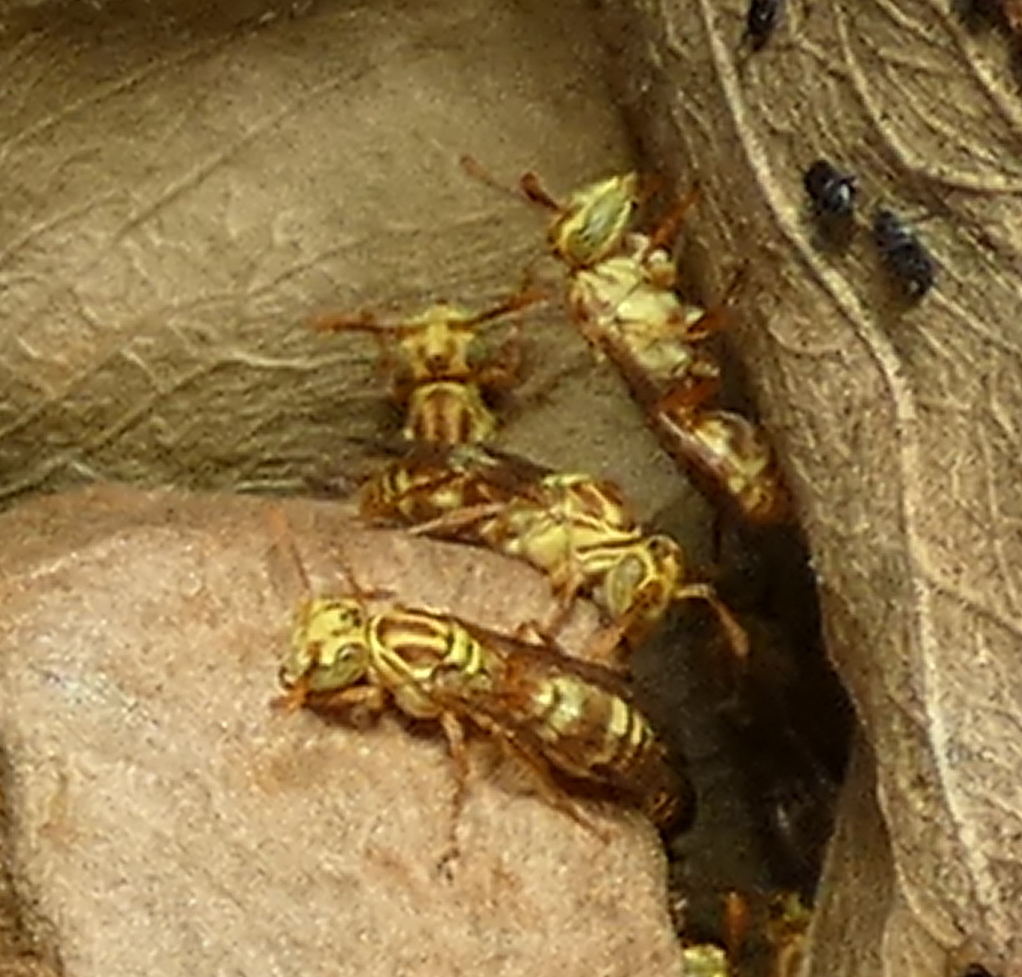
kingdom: Animalia
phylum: Arthropoda
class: Insecta
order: Hymenoptera
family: Vespidae
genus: Protopolybia
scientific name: Protopolybia potiguara
